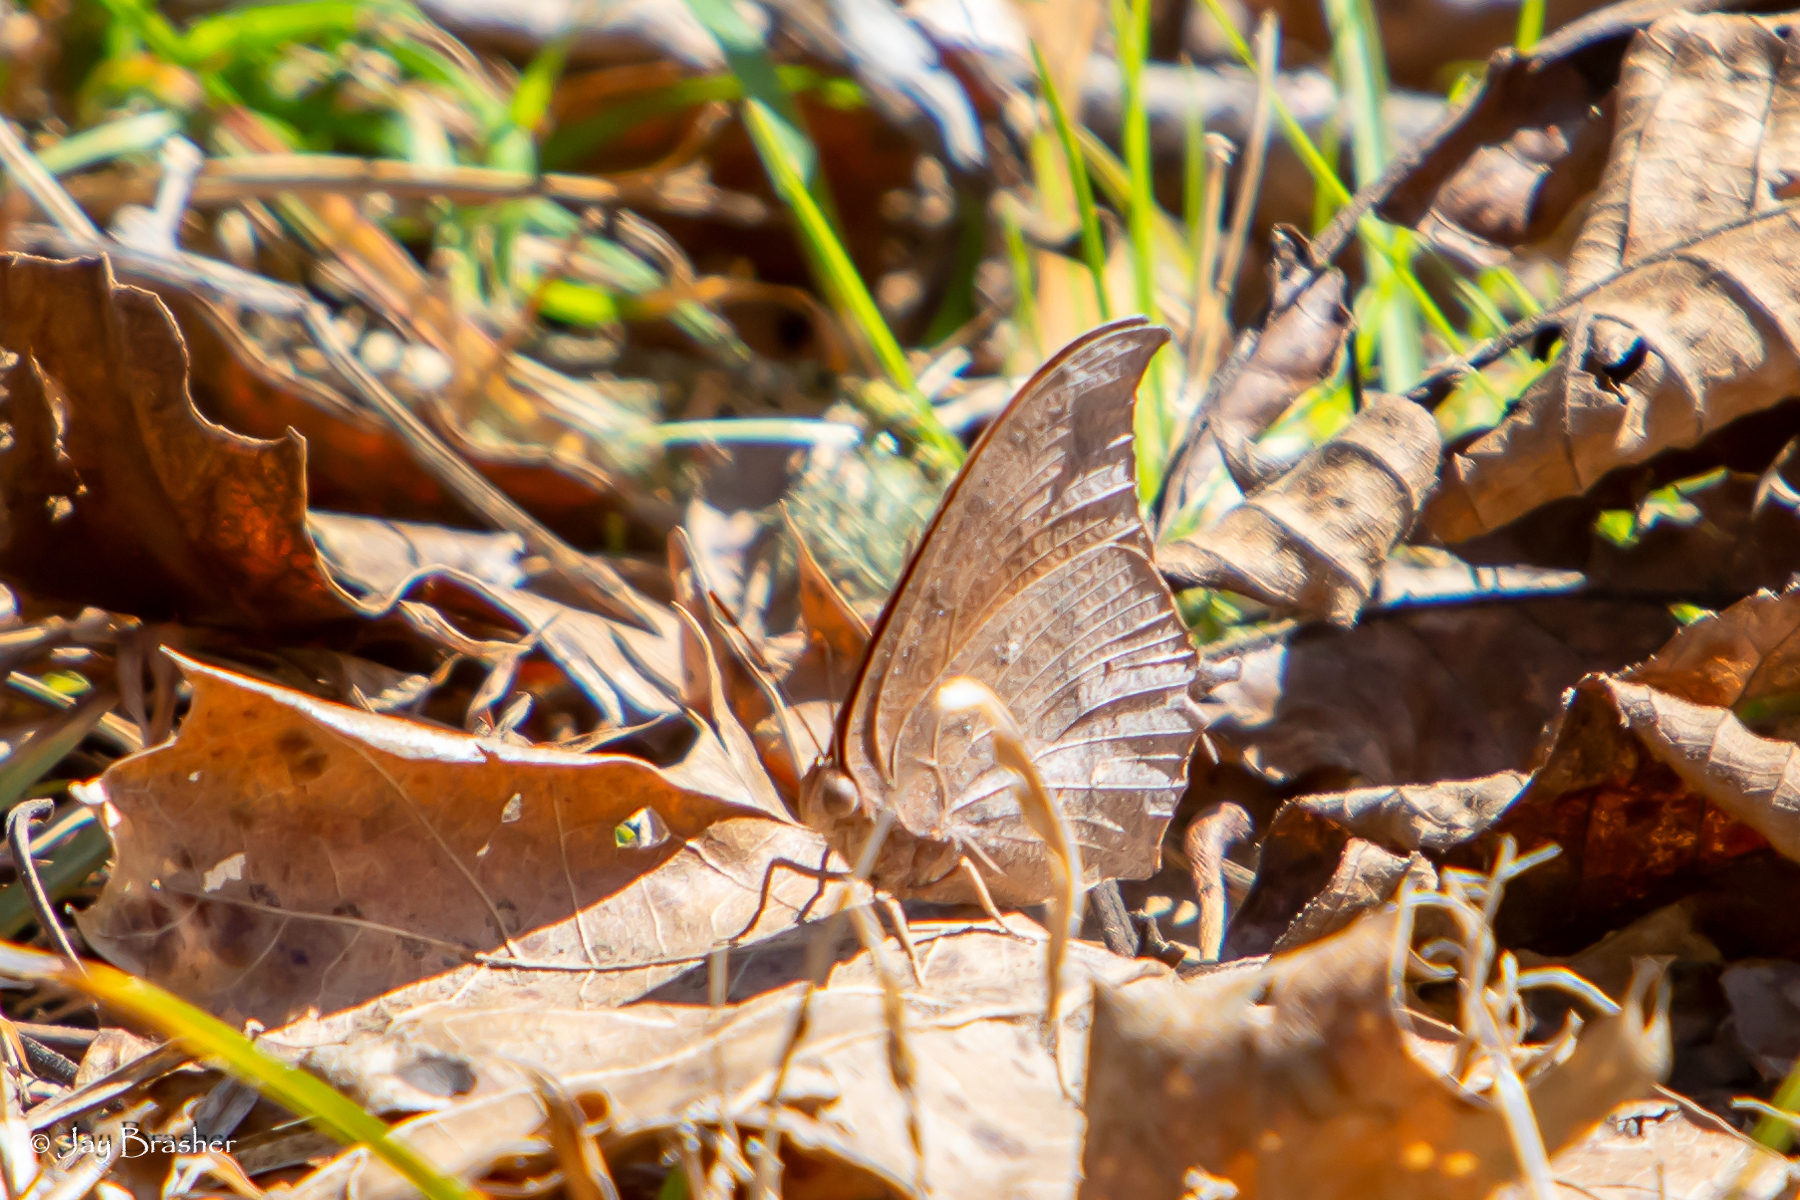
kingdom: Animalia
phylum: Arthropoda
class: Insecta
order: Lepidoptera
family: Nymphalidae
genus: Anaea
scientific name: Anaea andria
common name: Goatweed leafwing
